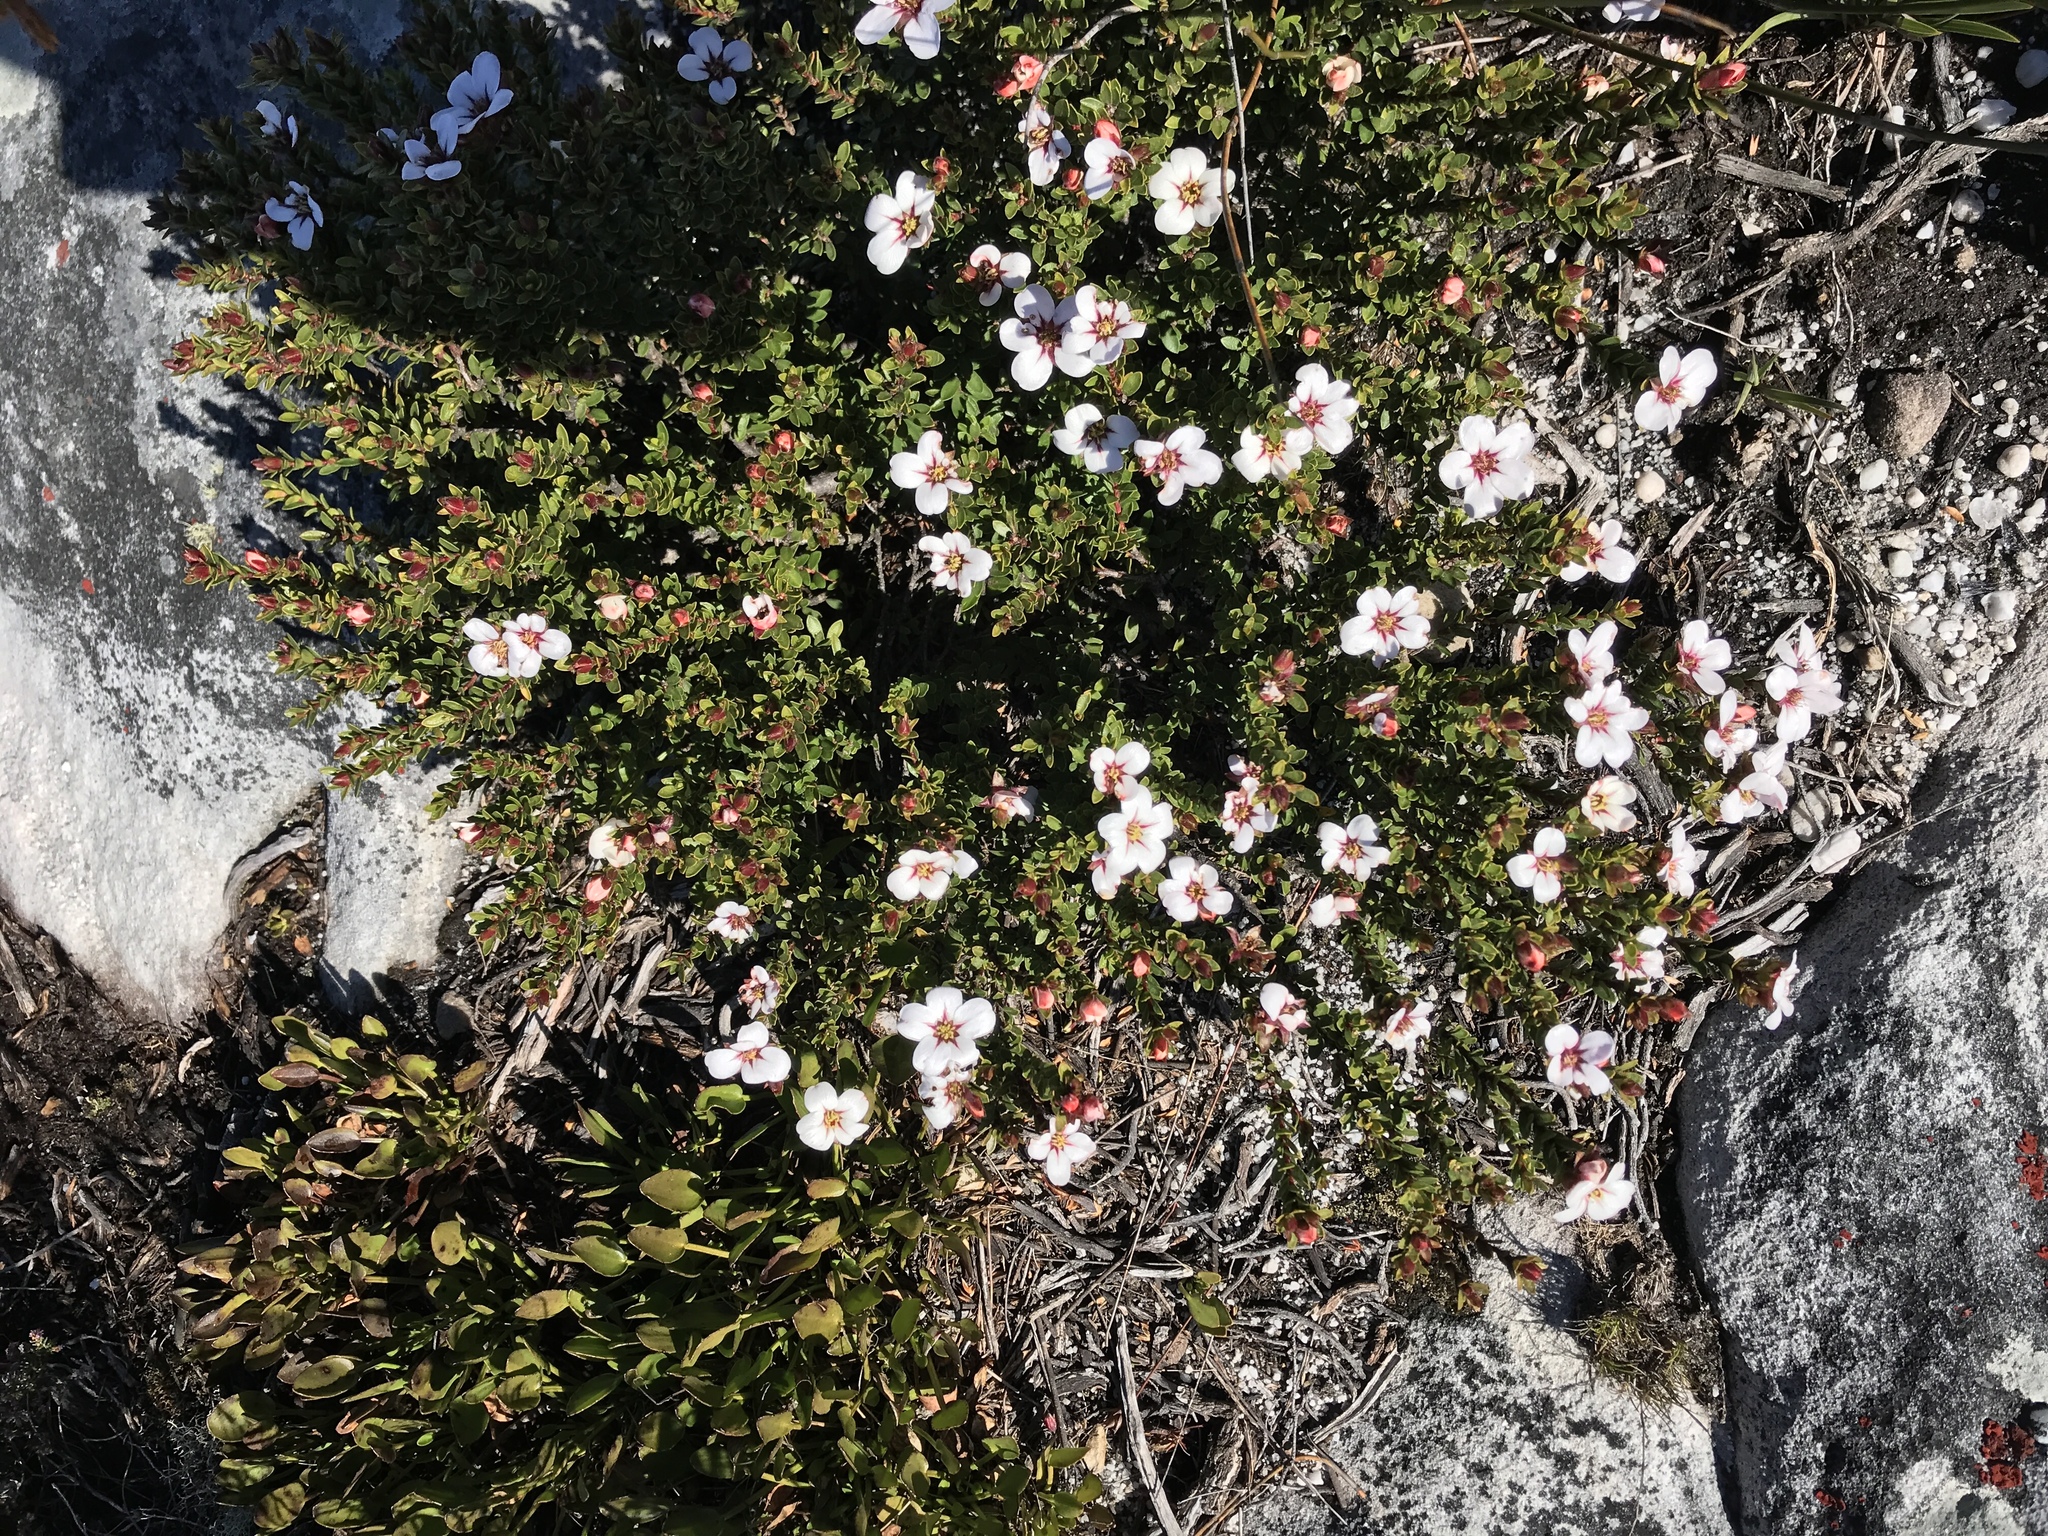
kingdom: Plantae
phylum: Tracheophyta
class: Magnoliopsida
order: Sapindales
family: Rutaceae
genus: Adenandra
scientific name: Adenandra villosa
